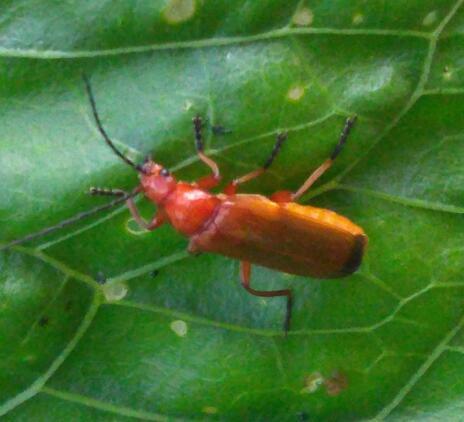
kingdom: Animalia
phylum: Arthropoda
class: Insecta
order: Coleoptera
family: Cantharidae
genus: Rhagonycha
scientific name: Rhagonycha fulva
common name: Common red soldier beetle
